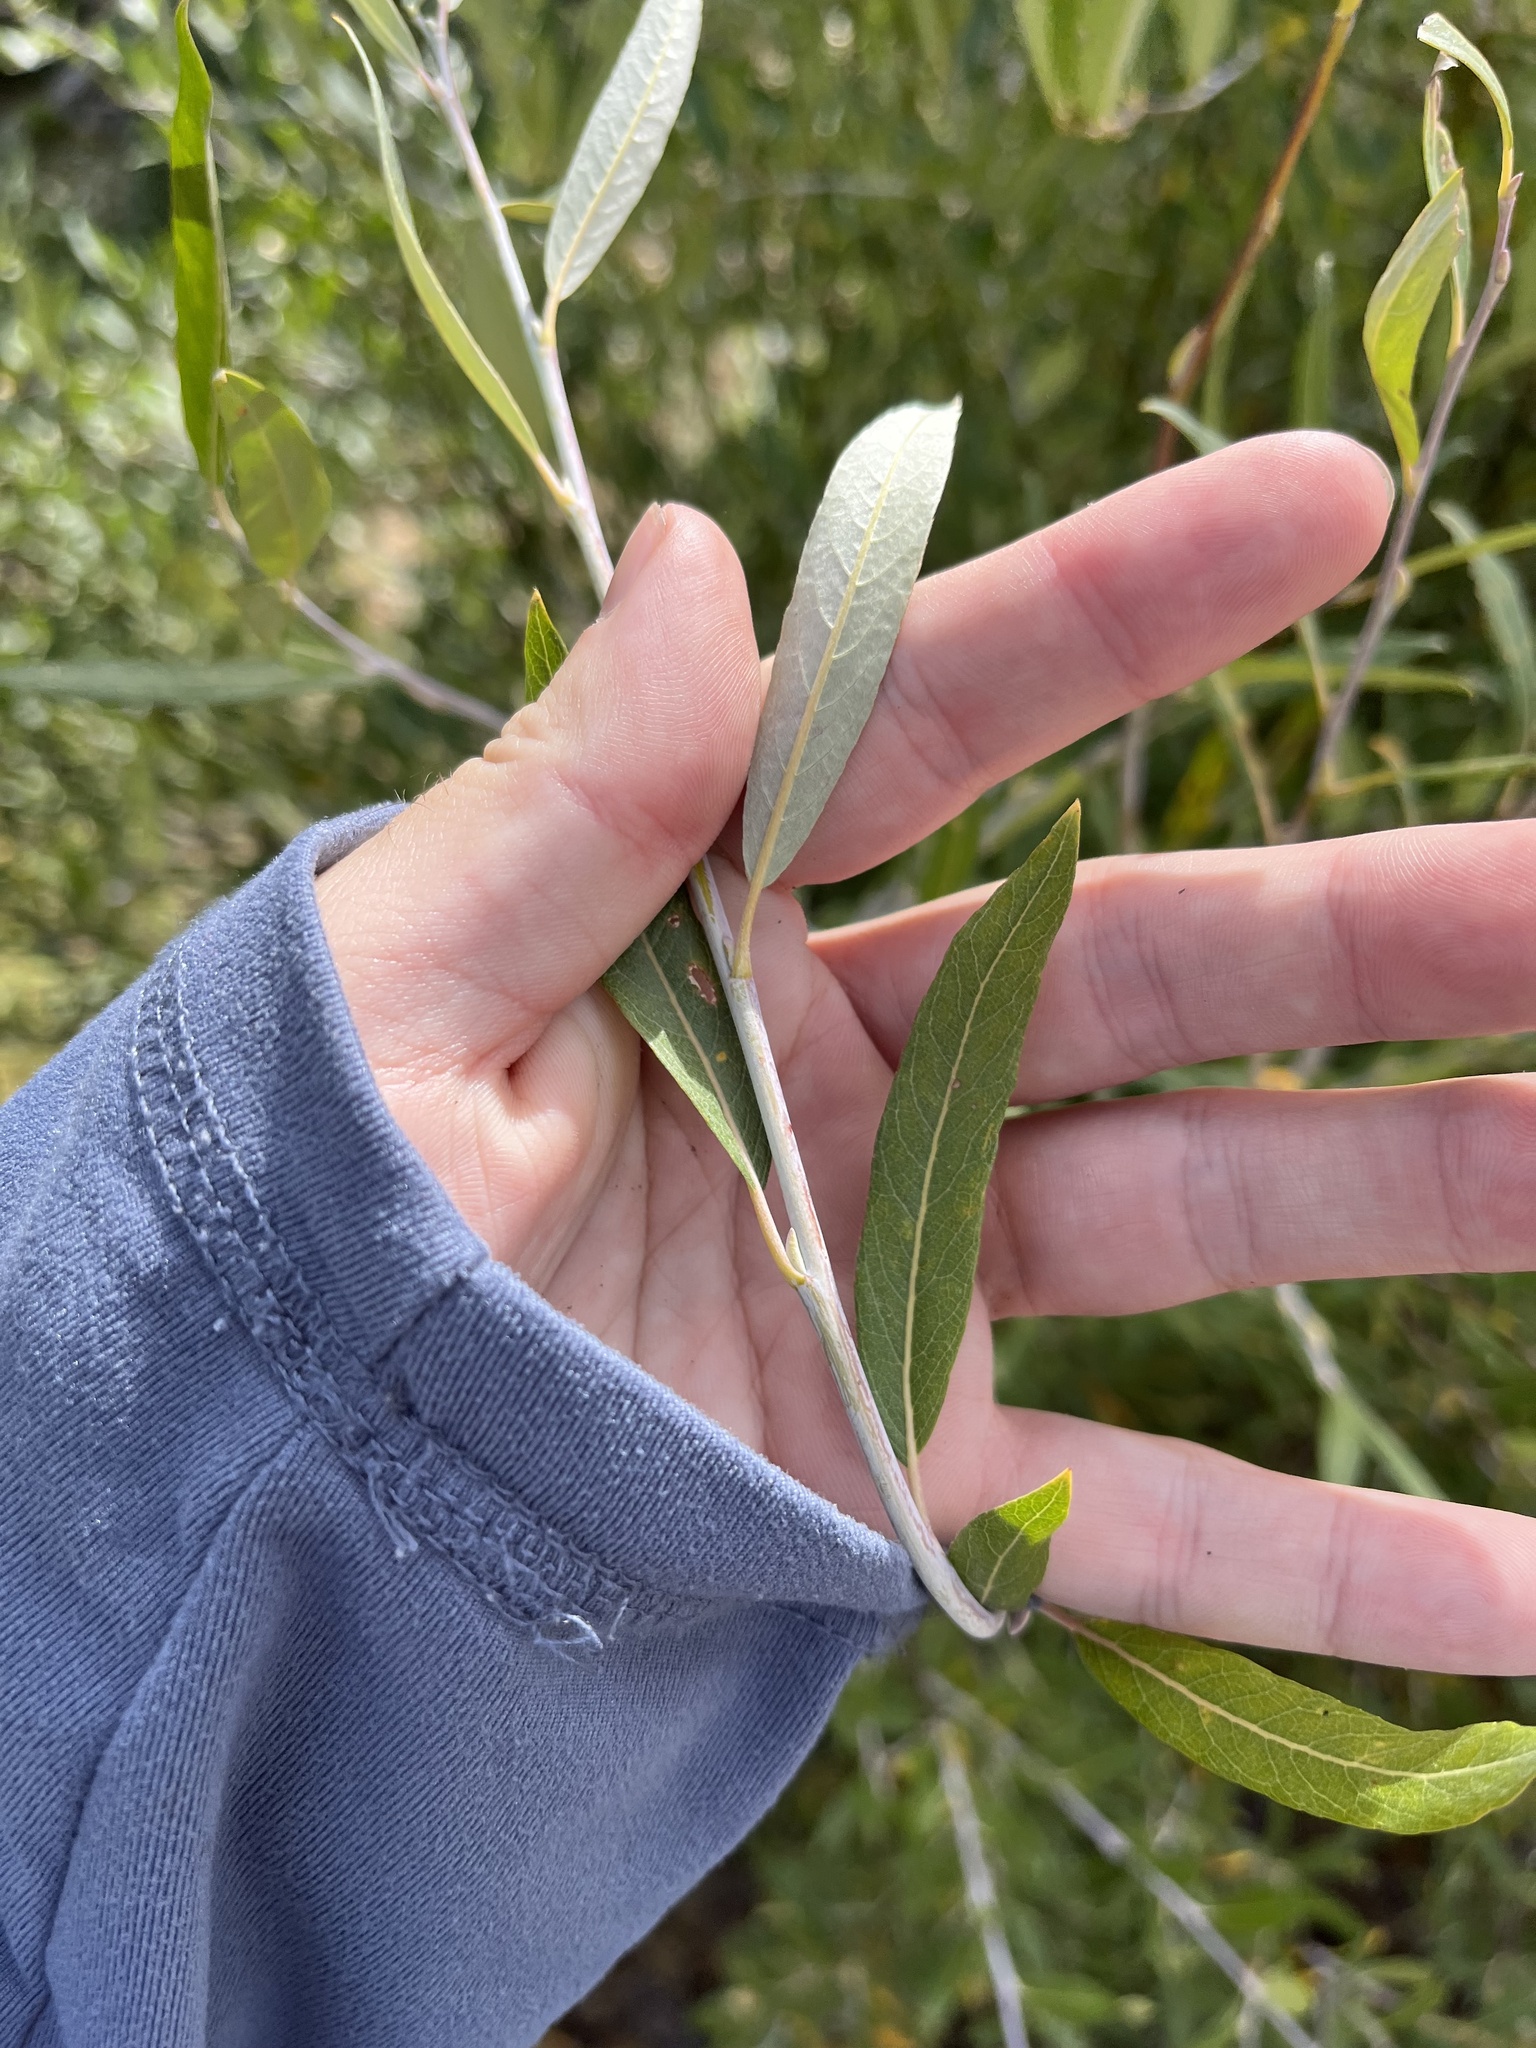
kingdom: Plantae
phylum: Tracheophyta
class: Magnoliopsida
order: Malpighiales
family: Salicaceae
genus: Salix
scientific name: Salix geyeriana
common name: Geyer's willow
